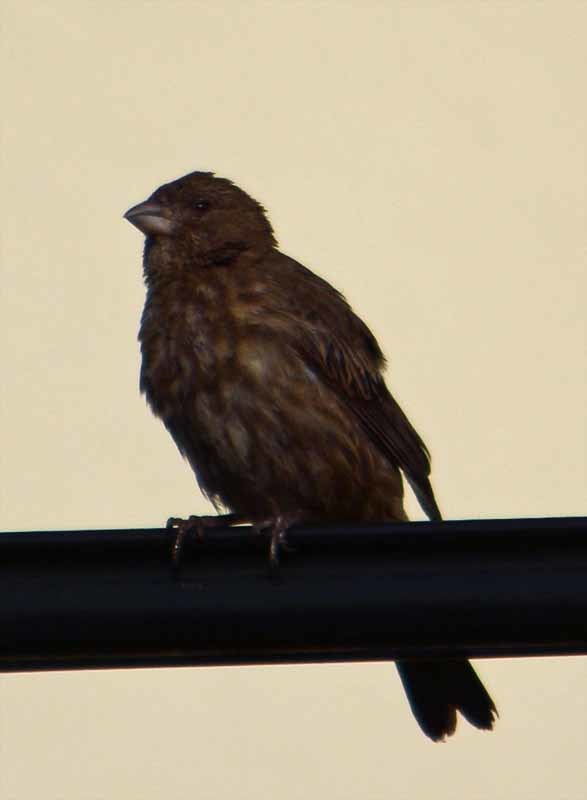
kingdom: Animalia
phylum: Chordata
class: Aves
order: Passeriformes
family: Fringillidae
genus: Haemorhous
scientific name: Haemorhous mexicanus
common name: House finch
